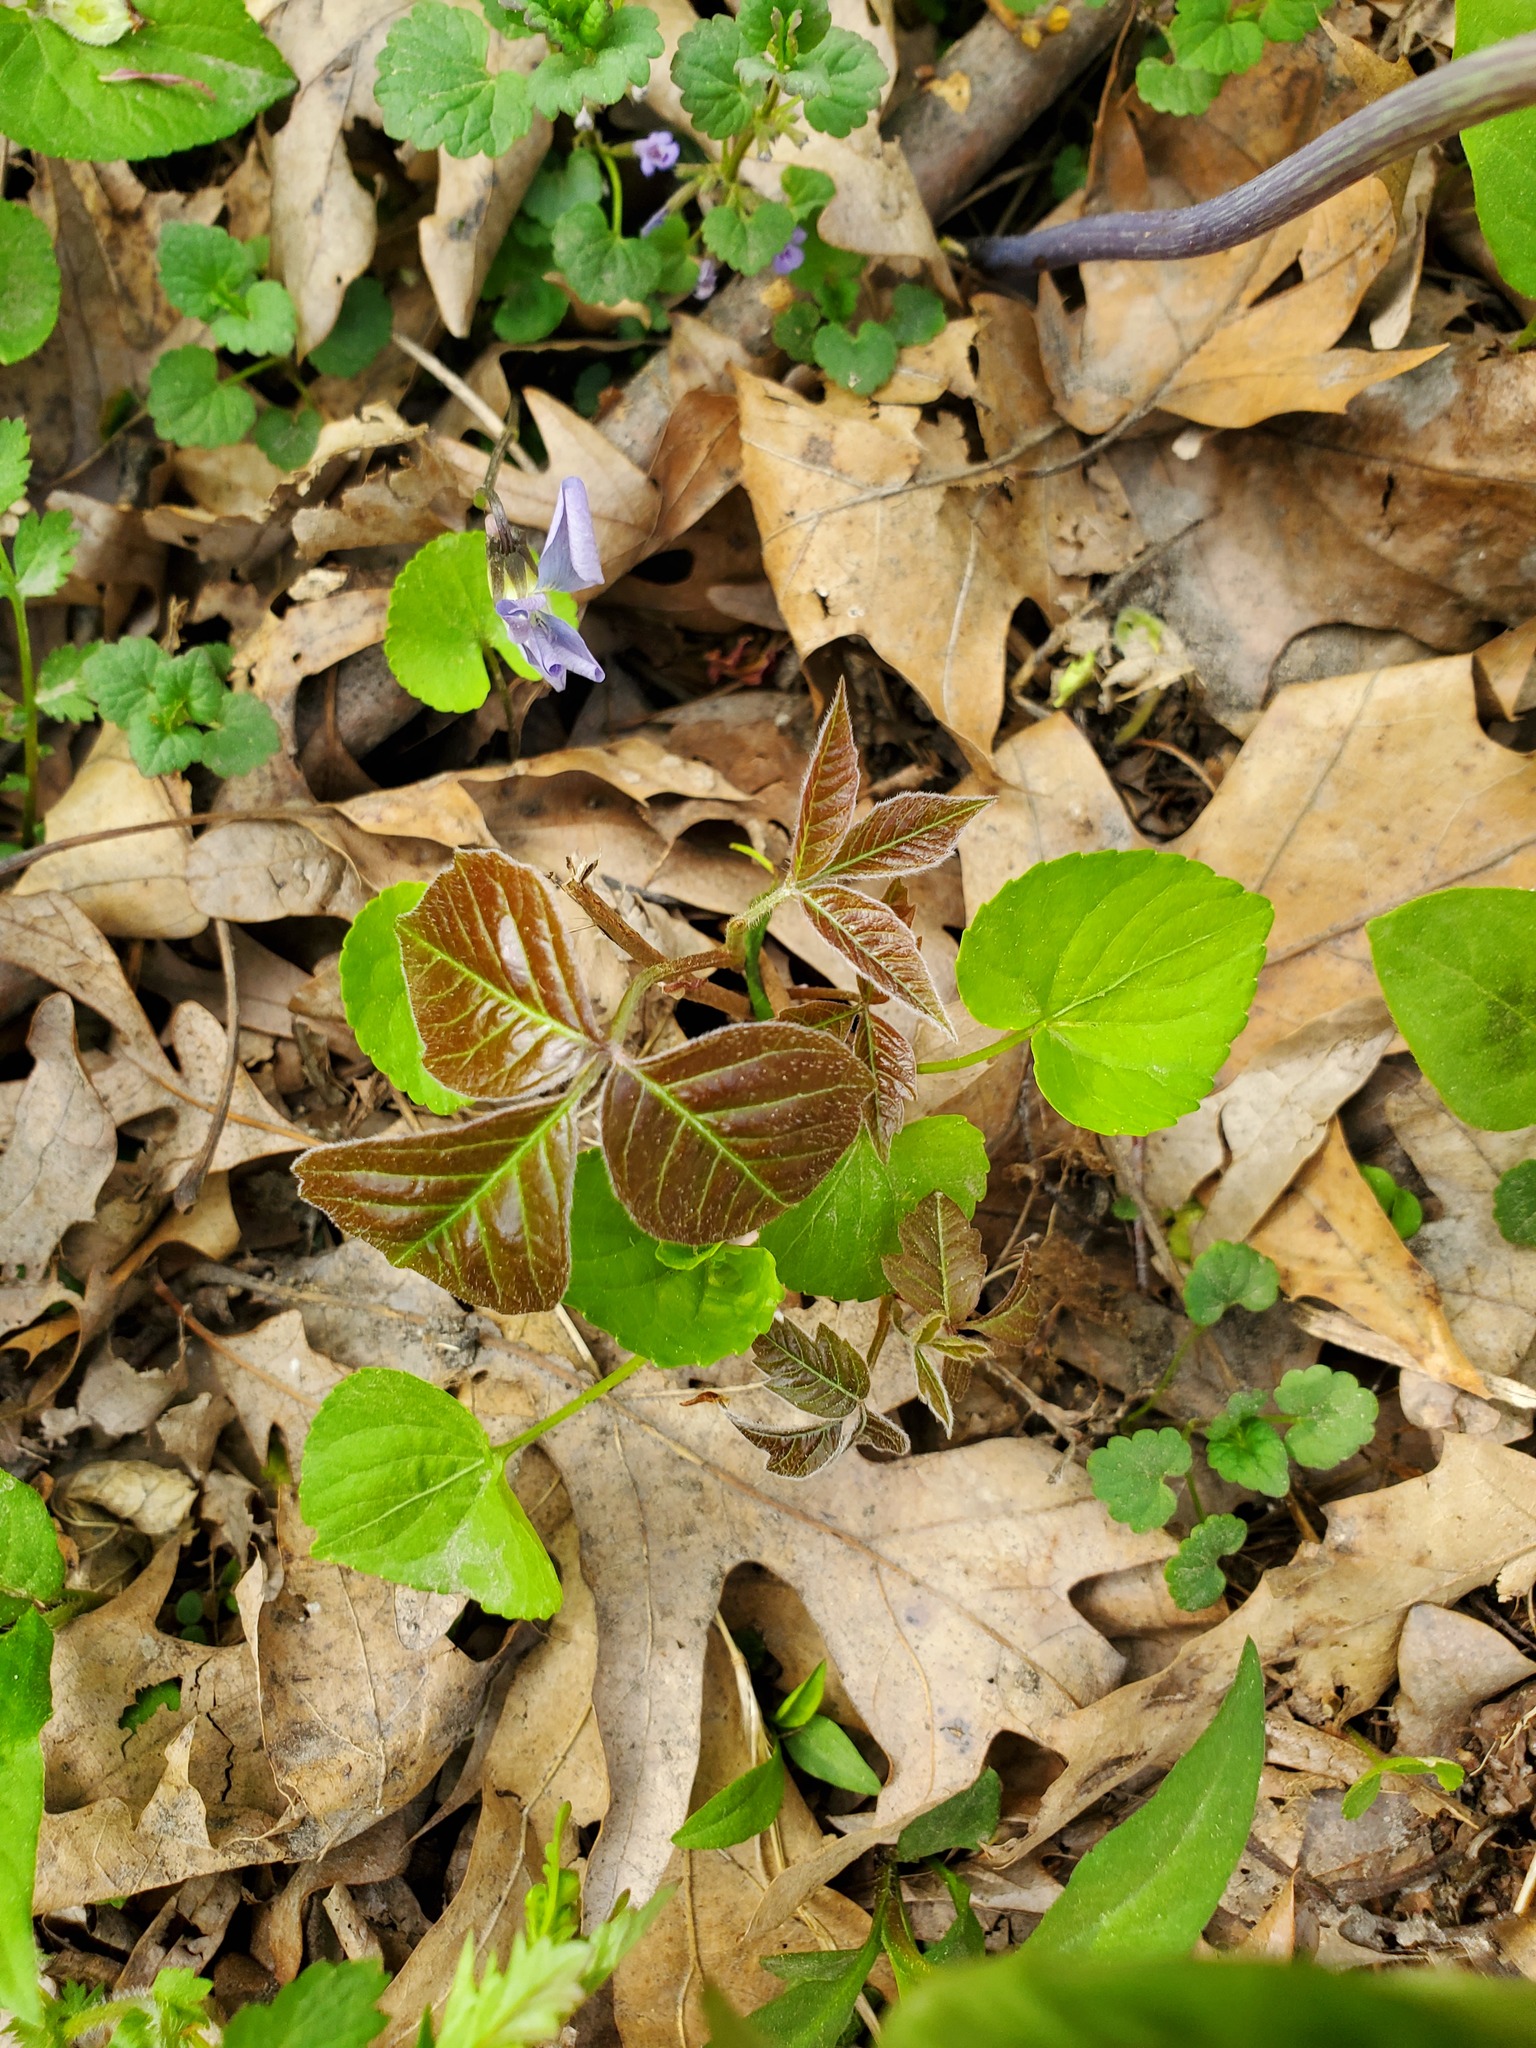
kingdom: Plantae
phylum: Tracheophyta
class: Magnoliopsida
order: Sapindales
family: Anacardiaceae
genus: Toxicodendron
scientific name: Toxicodendron radicans
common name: Poison ivy
